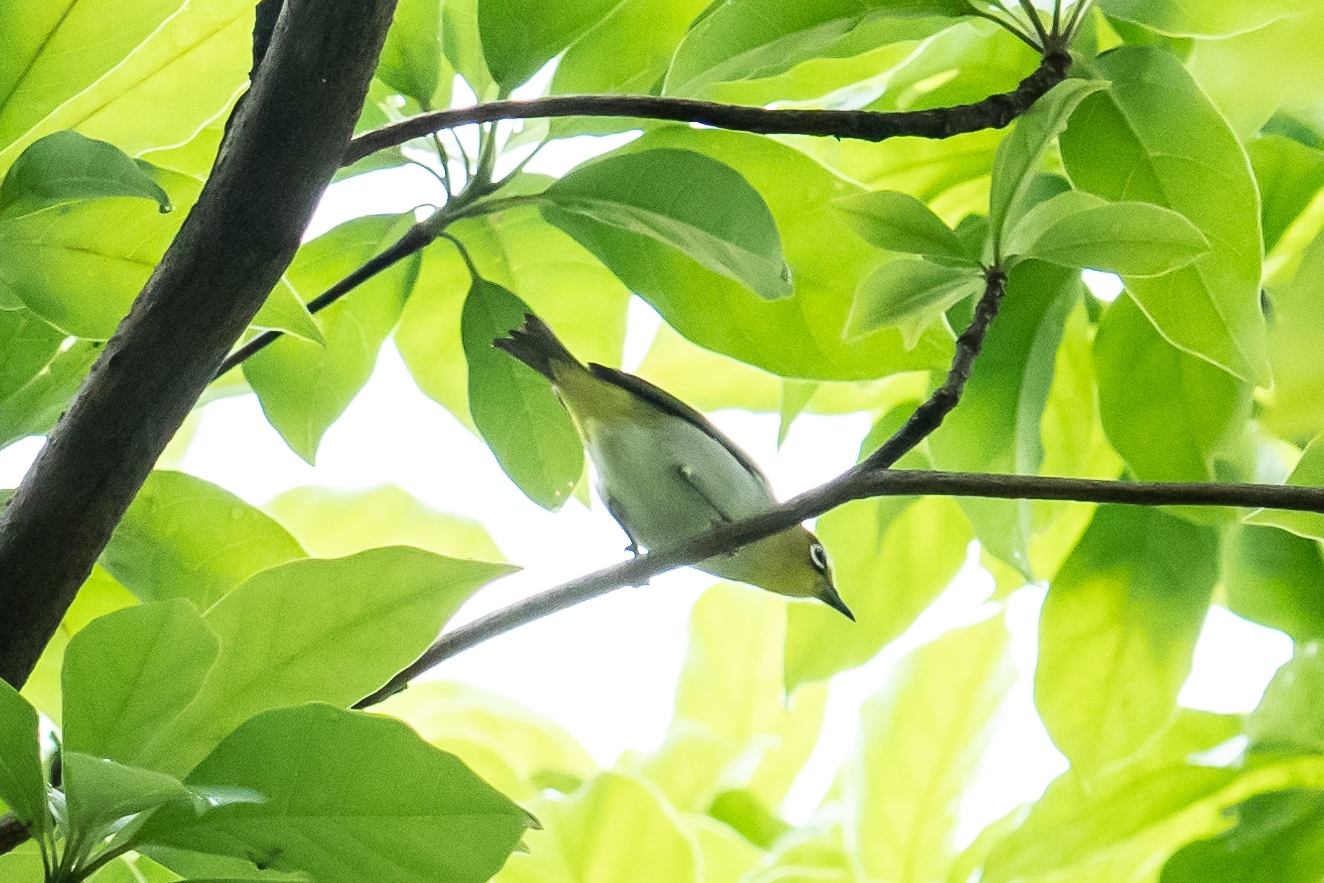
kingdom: Animalia
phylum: Chordata
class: Aves
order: Passeriformes
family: Zosteropidae
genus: Zosterops
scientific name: Zosterops simplex
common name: Swinhoe's white-eye
